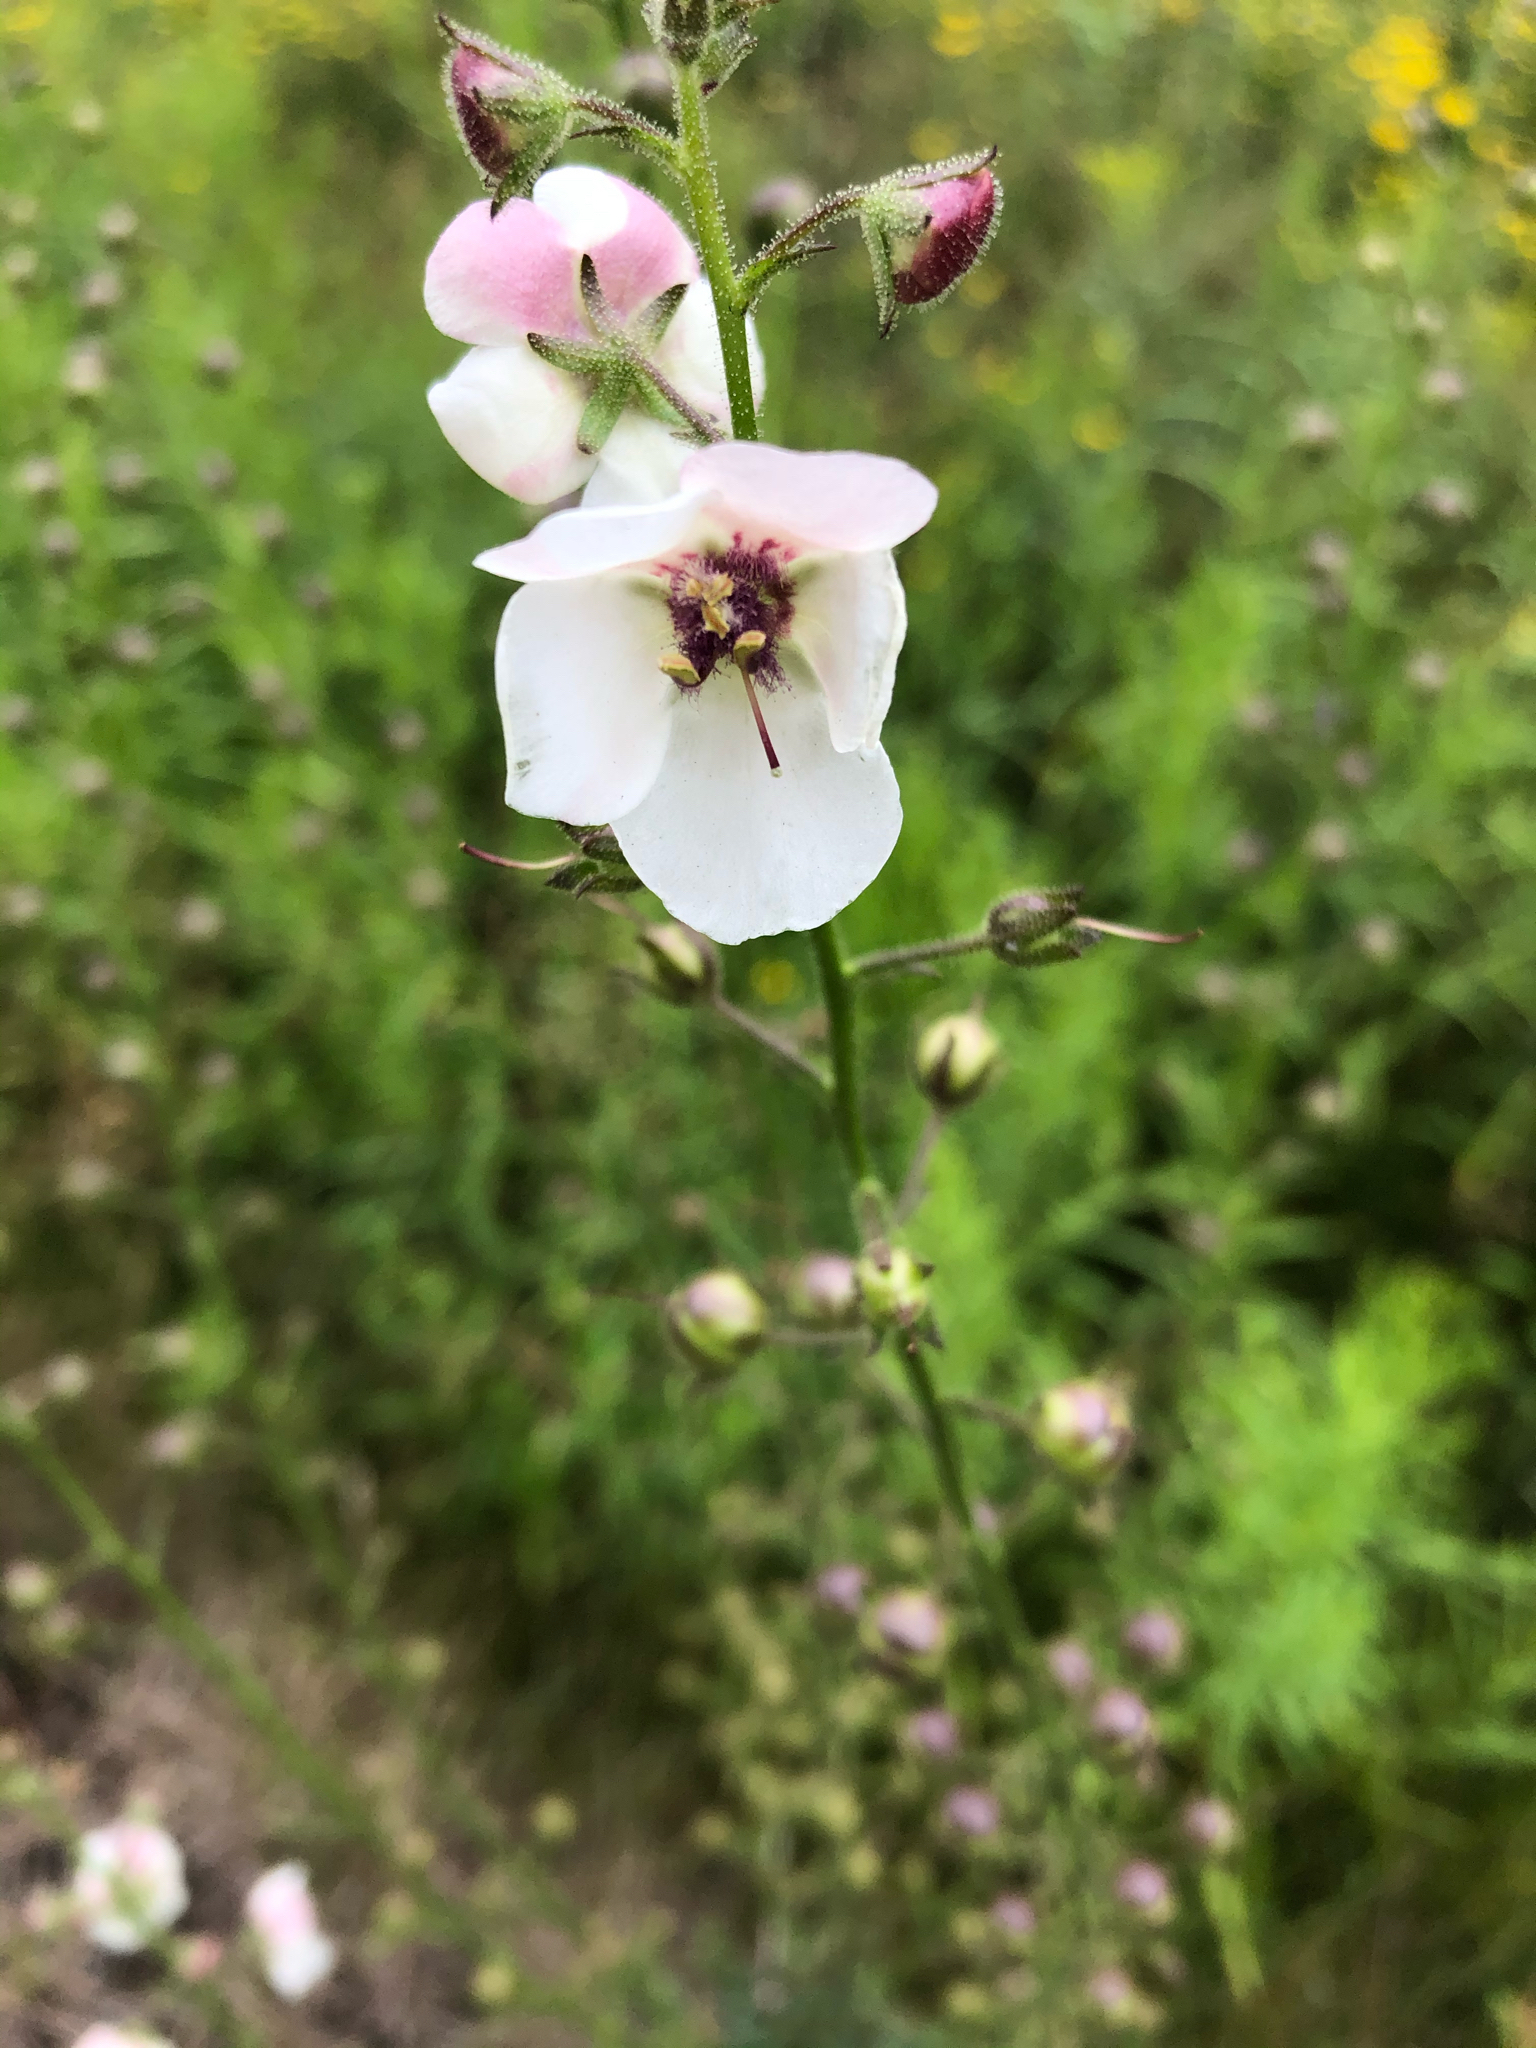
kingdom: Plantae
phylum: Tracheophyta
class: Magnoliopsida
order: Lamiales
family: Scrophulariaceae
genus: Verbascum
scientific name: Verbascum blattaria
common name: Moth mullein
